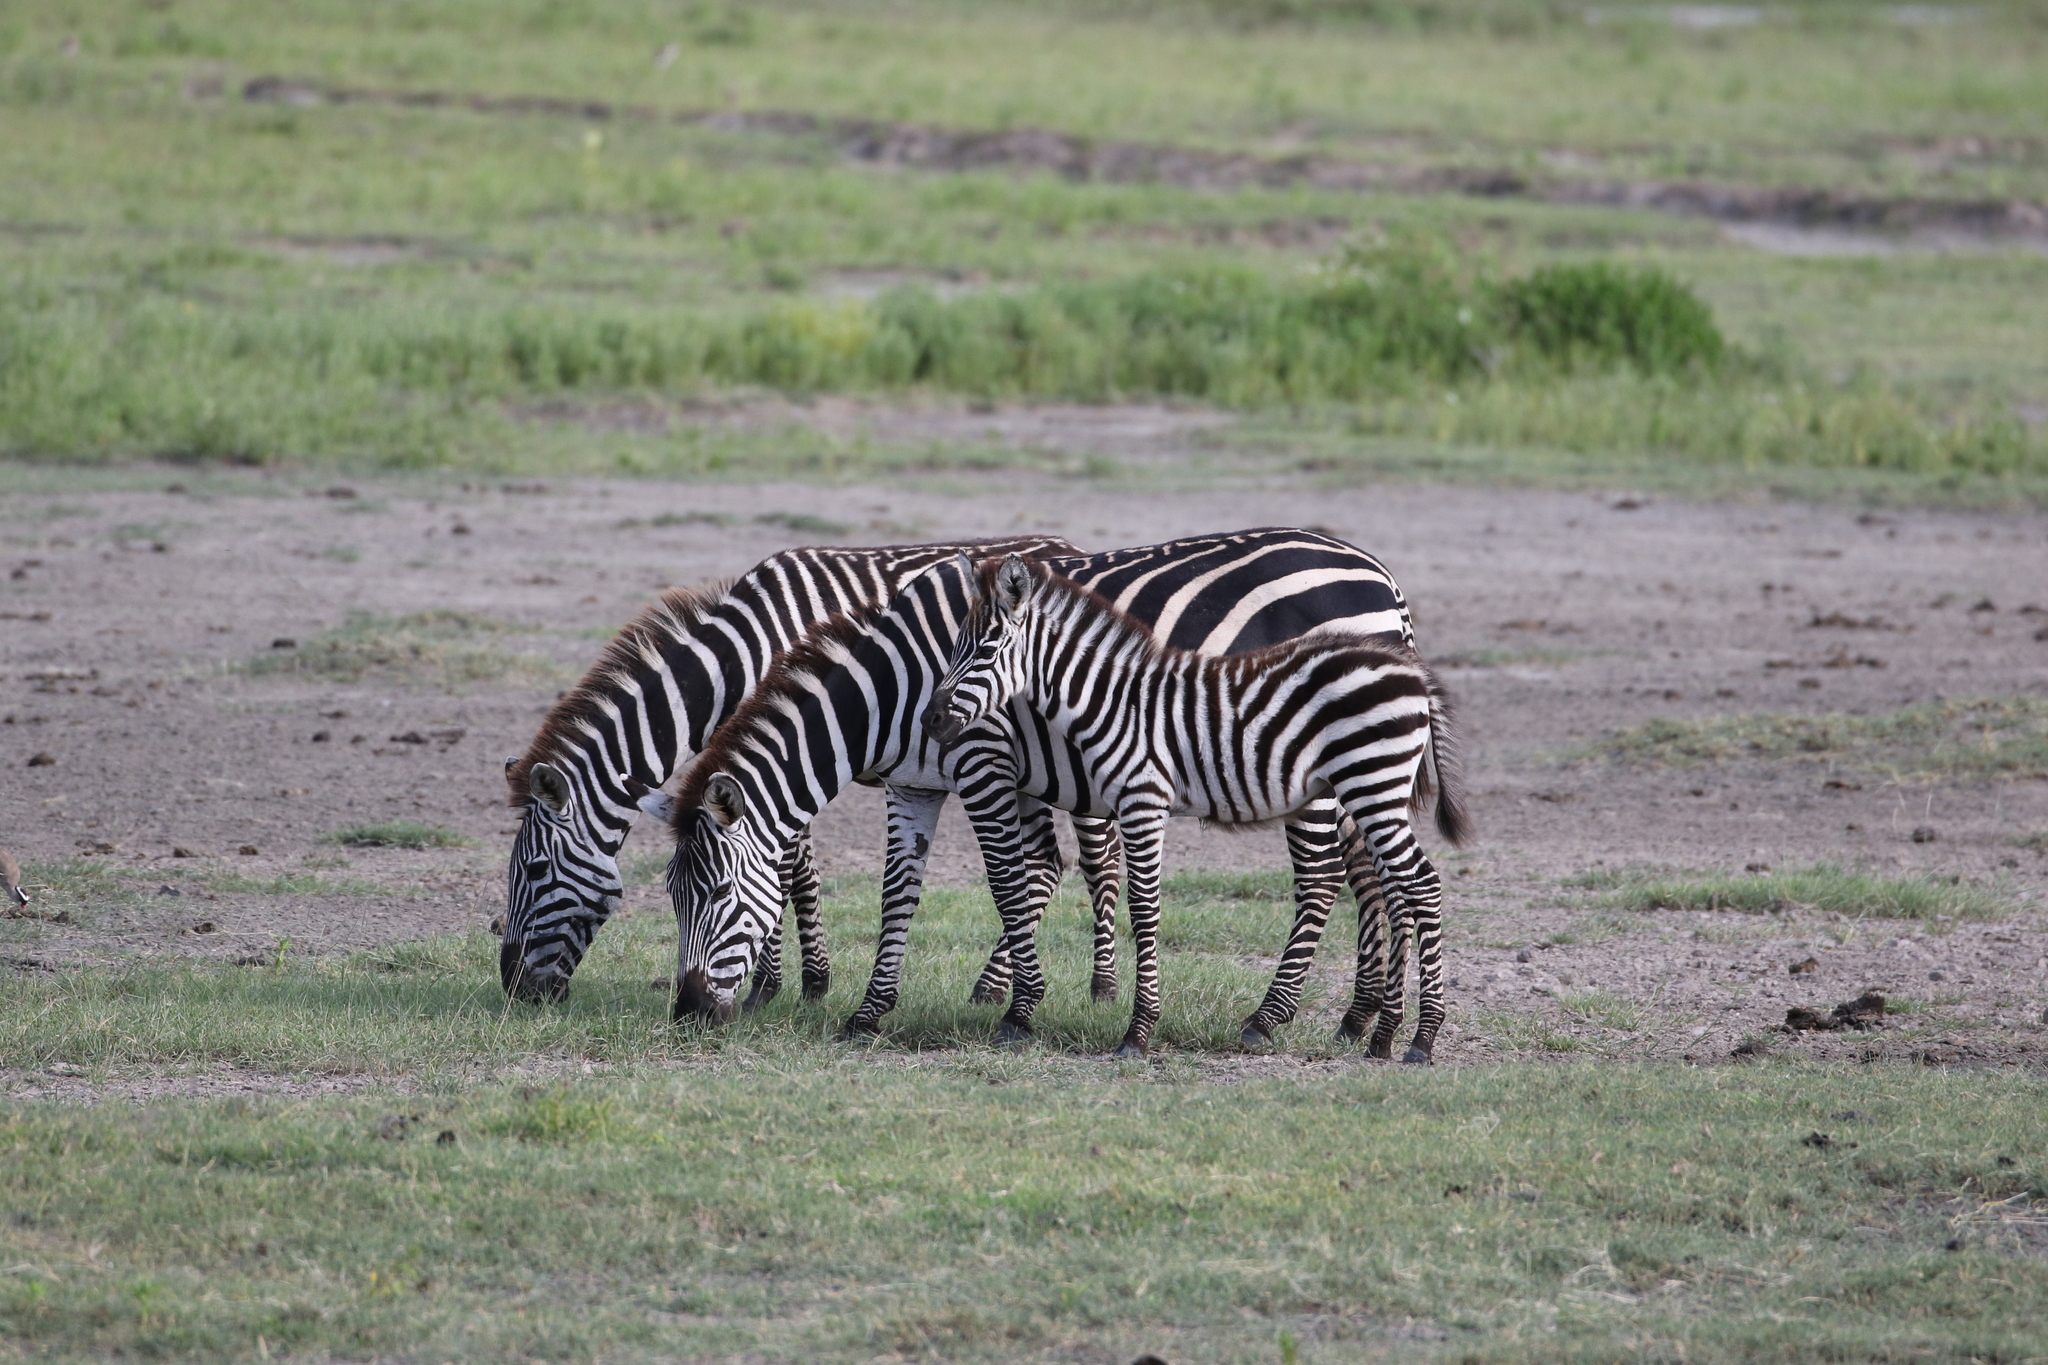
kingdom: Animalia
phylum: Chordata
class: Mammalia
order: Perissodactyla
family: Equidae
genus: Equus
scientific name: Equus quagga
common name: Plains zebra
